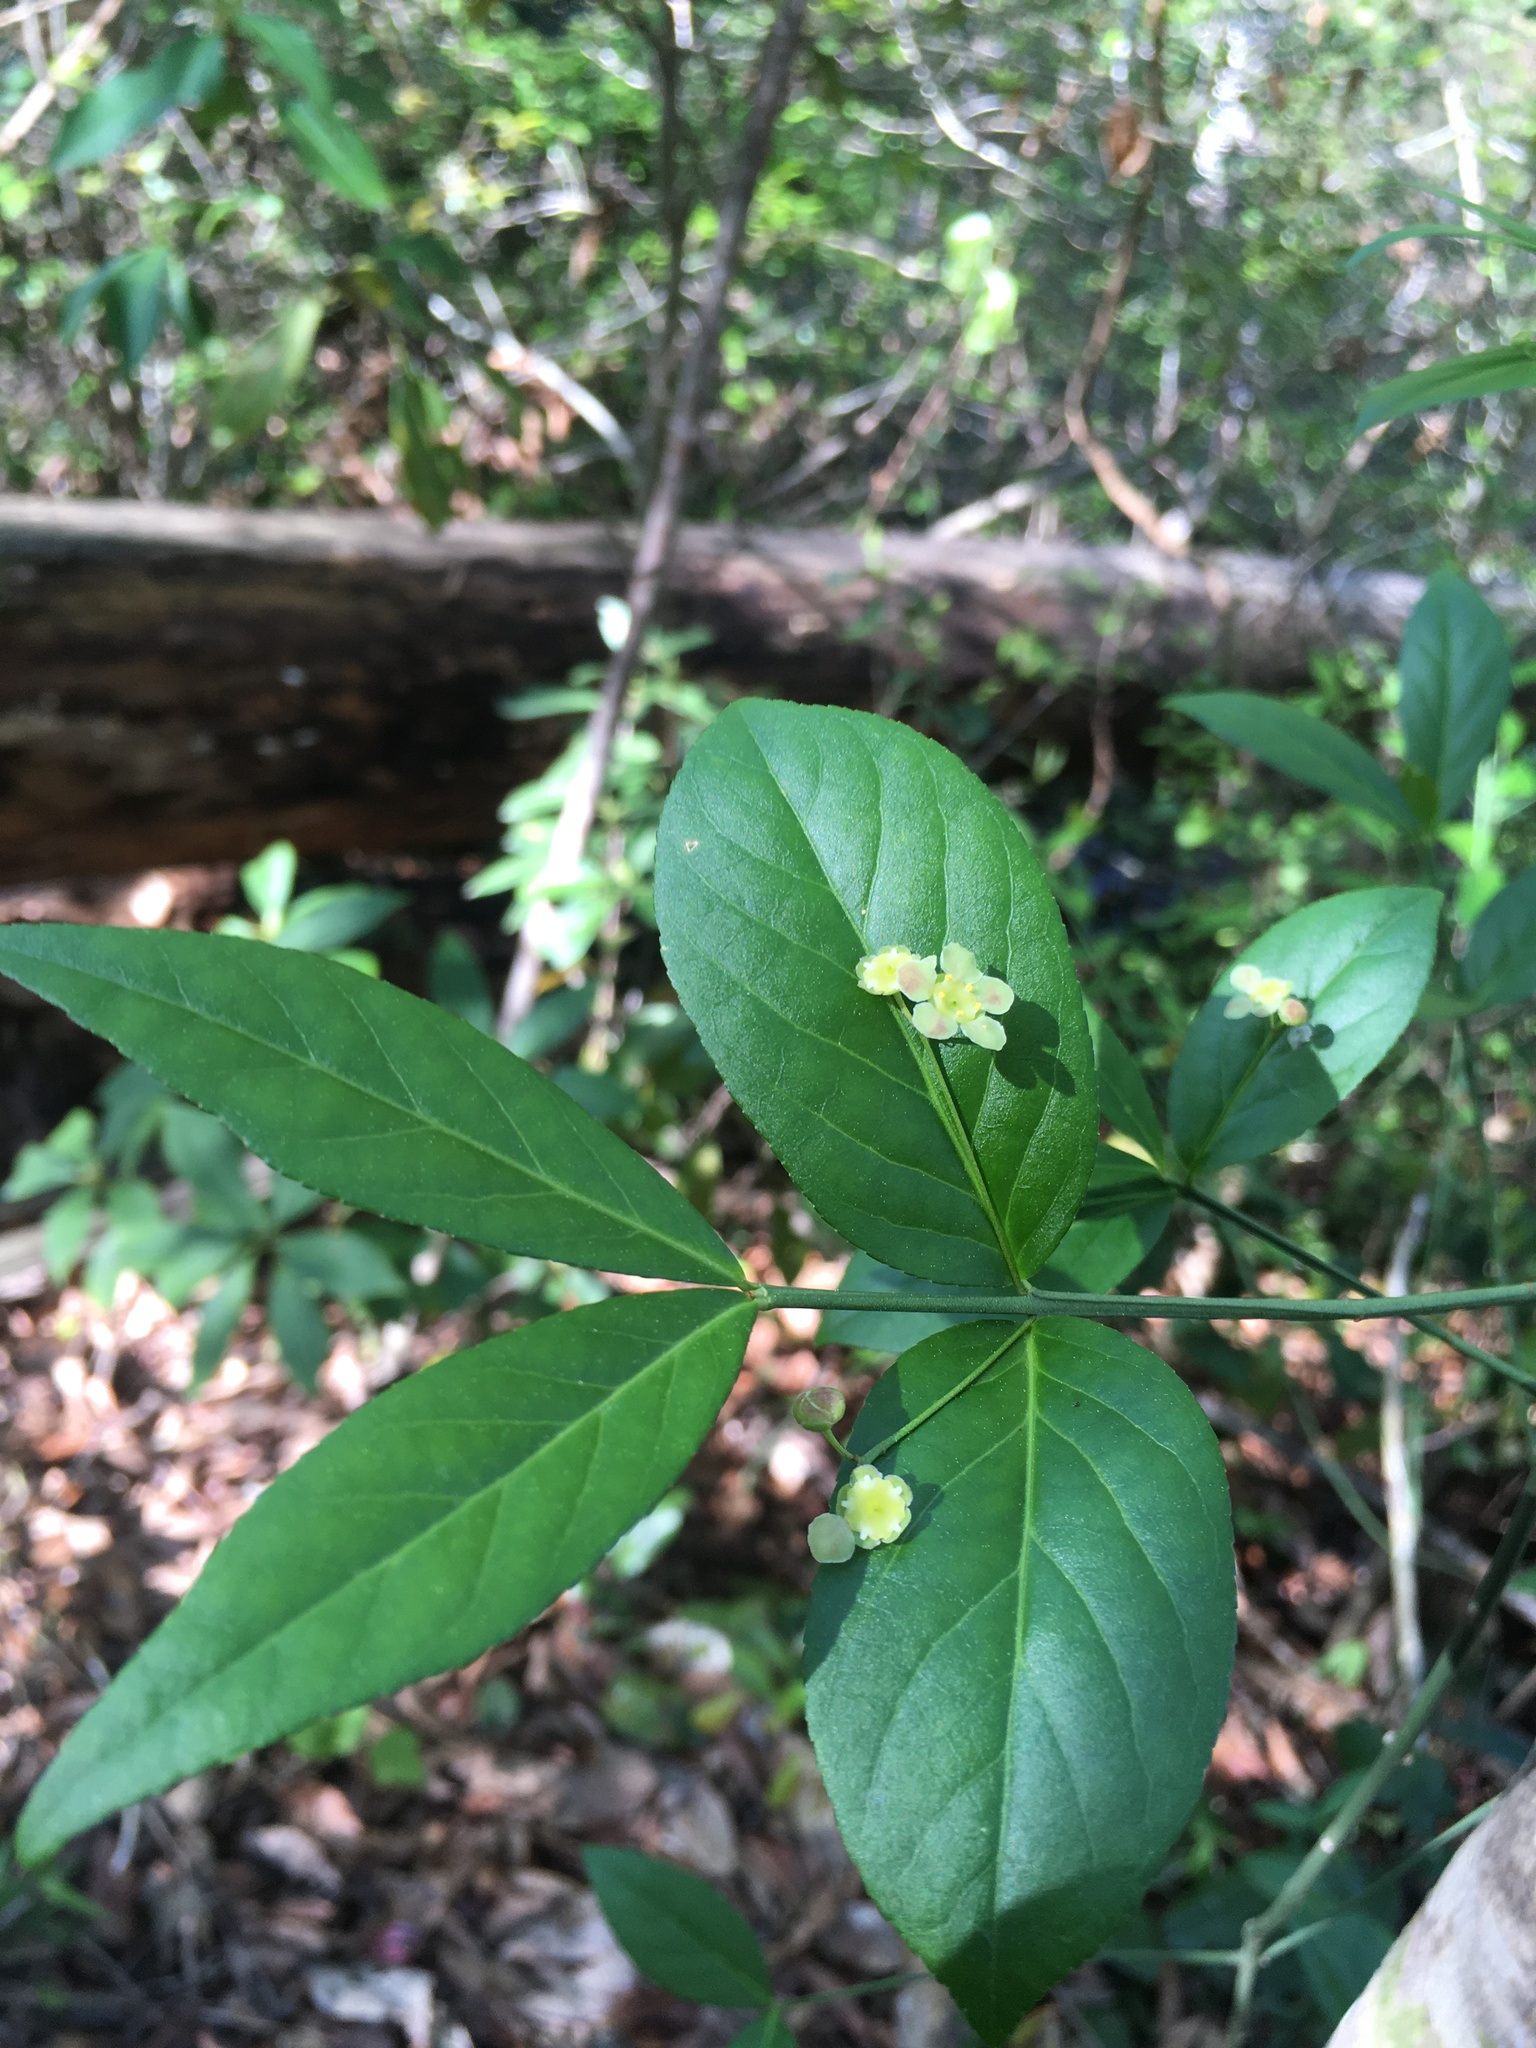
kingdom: Plantae
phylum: Tracheophyta
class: Magnoliopsida
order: Celastrales
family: Celastraceae
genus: Euonymus
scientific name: Euonymus americanus
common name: Bursting-heart
